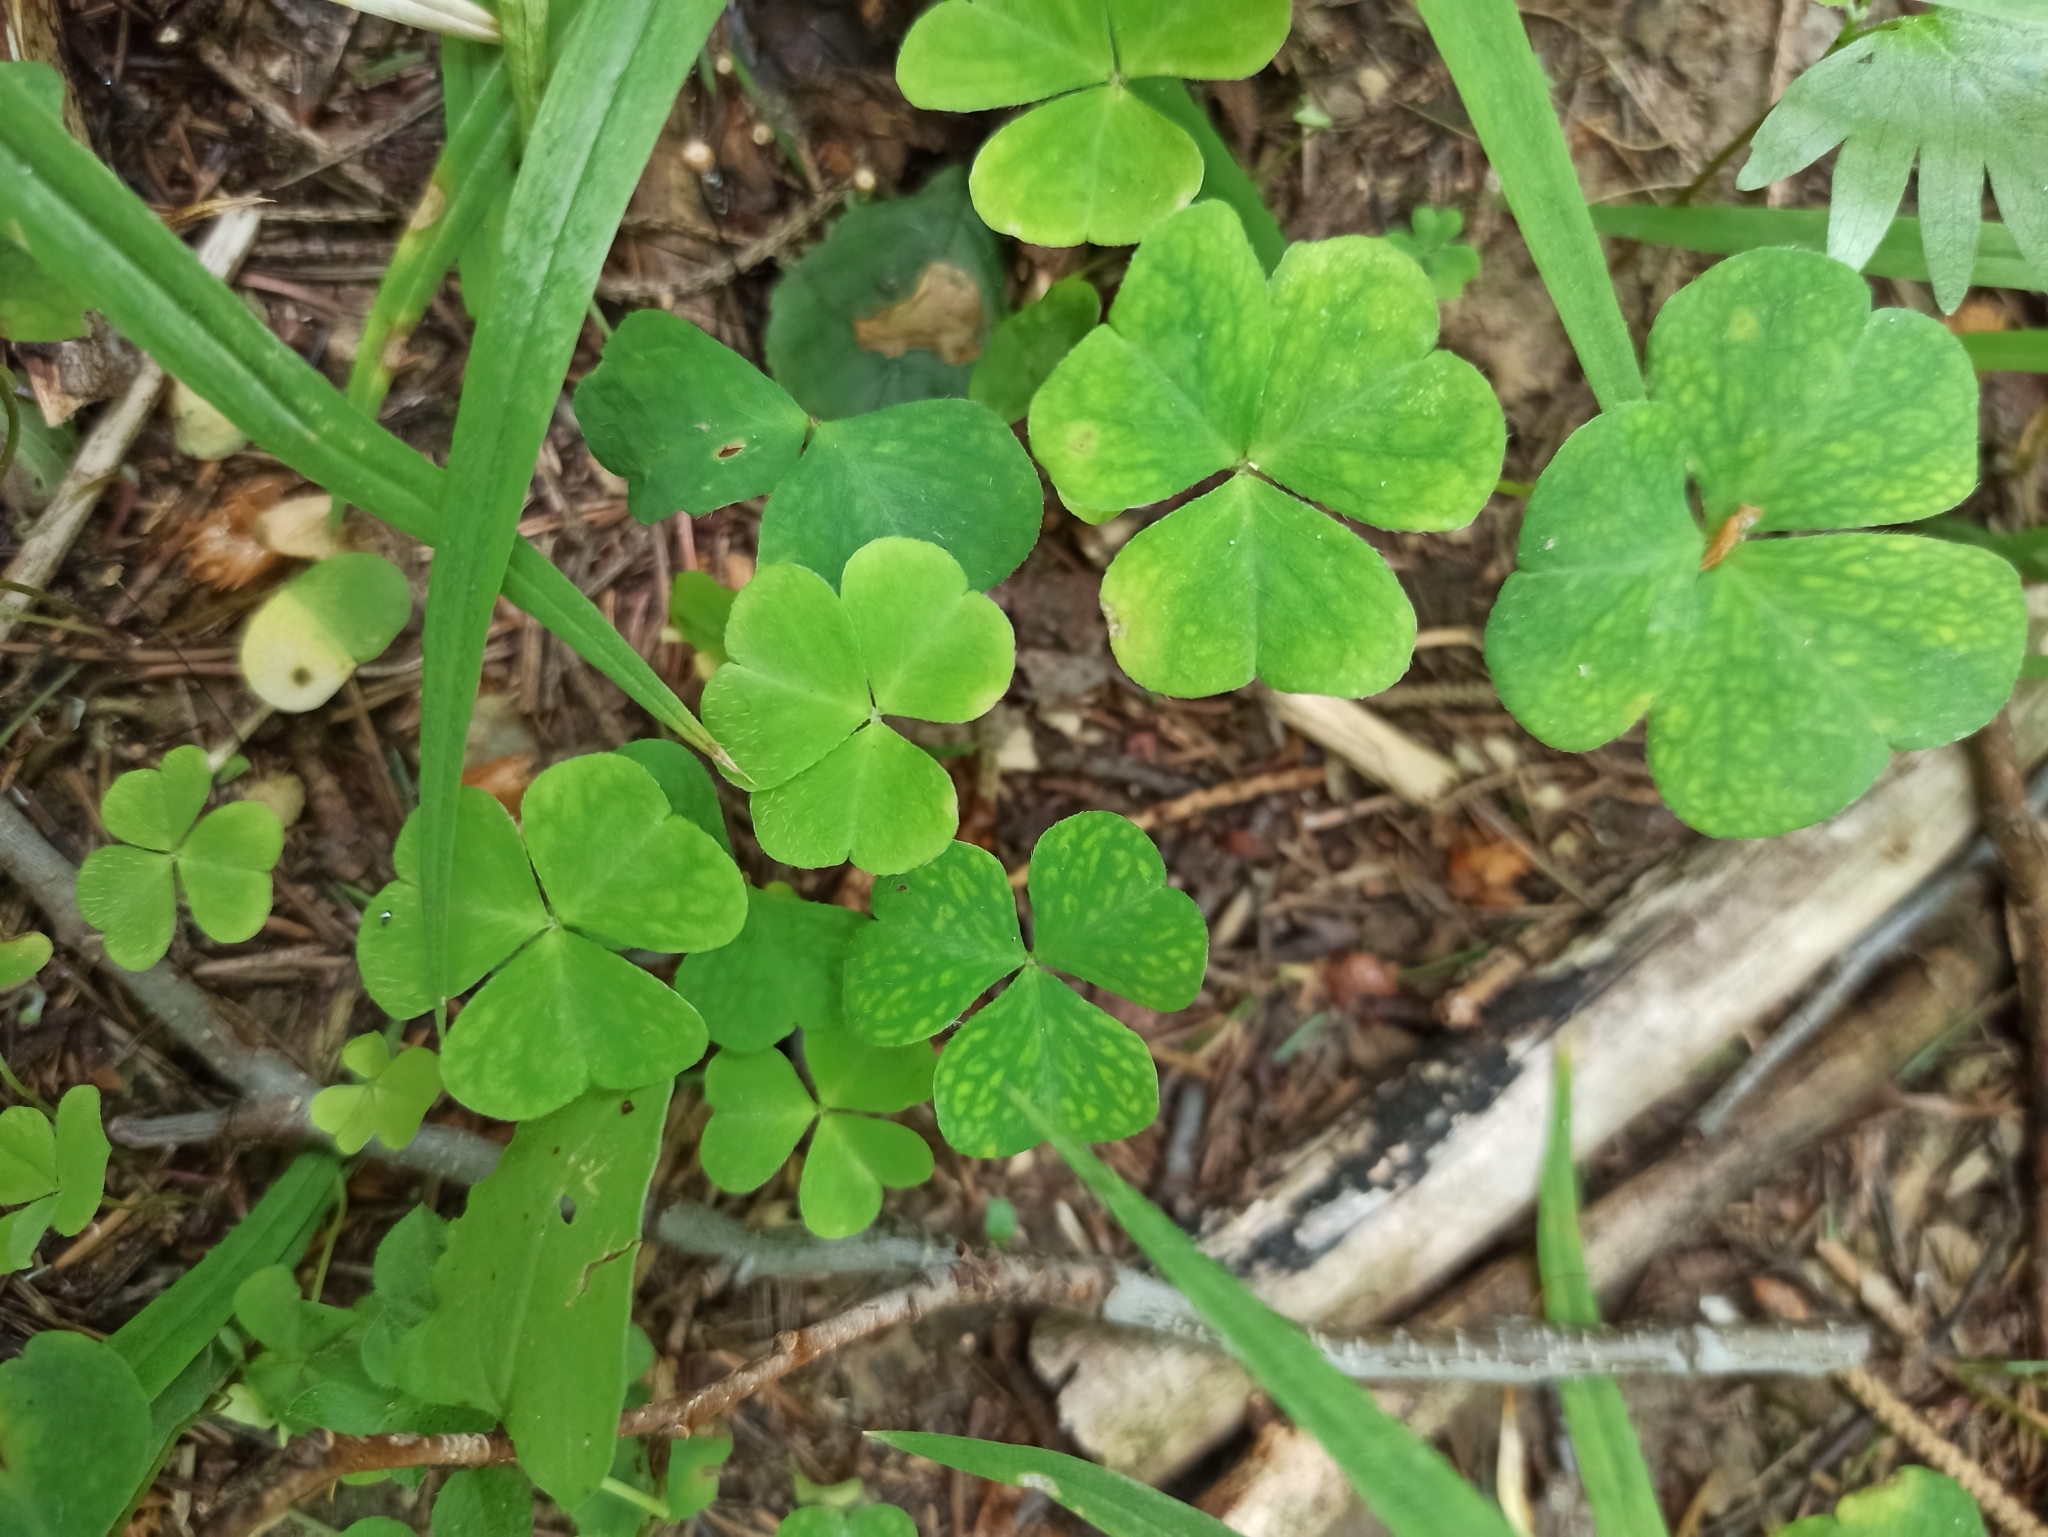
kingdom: Plantae
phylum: Tracheophyta
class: Magnoliopsida
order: Oxalidales
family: Oxalidaceae
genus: Oxalis
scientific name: Oxalis acetosella
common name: Wood-sorrel
